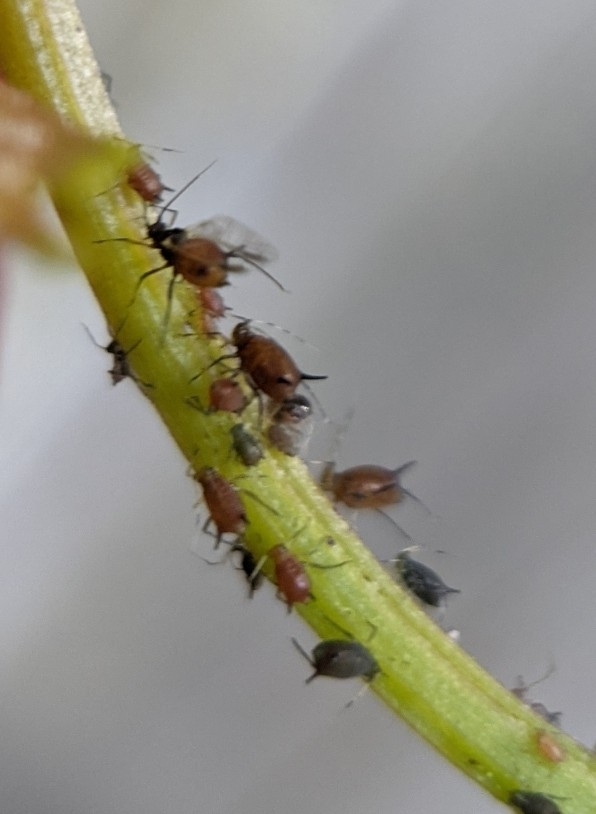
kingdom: Animalia
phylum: Arthropoda
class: Insecta
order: Hemiptera
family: Aphididae
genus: Aphis
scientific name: Aphis illinoisensis
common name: Grapevine aphid
